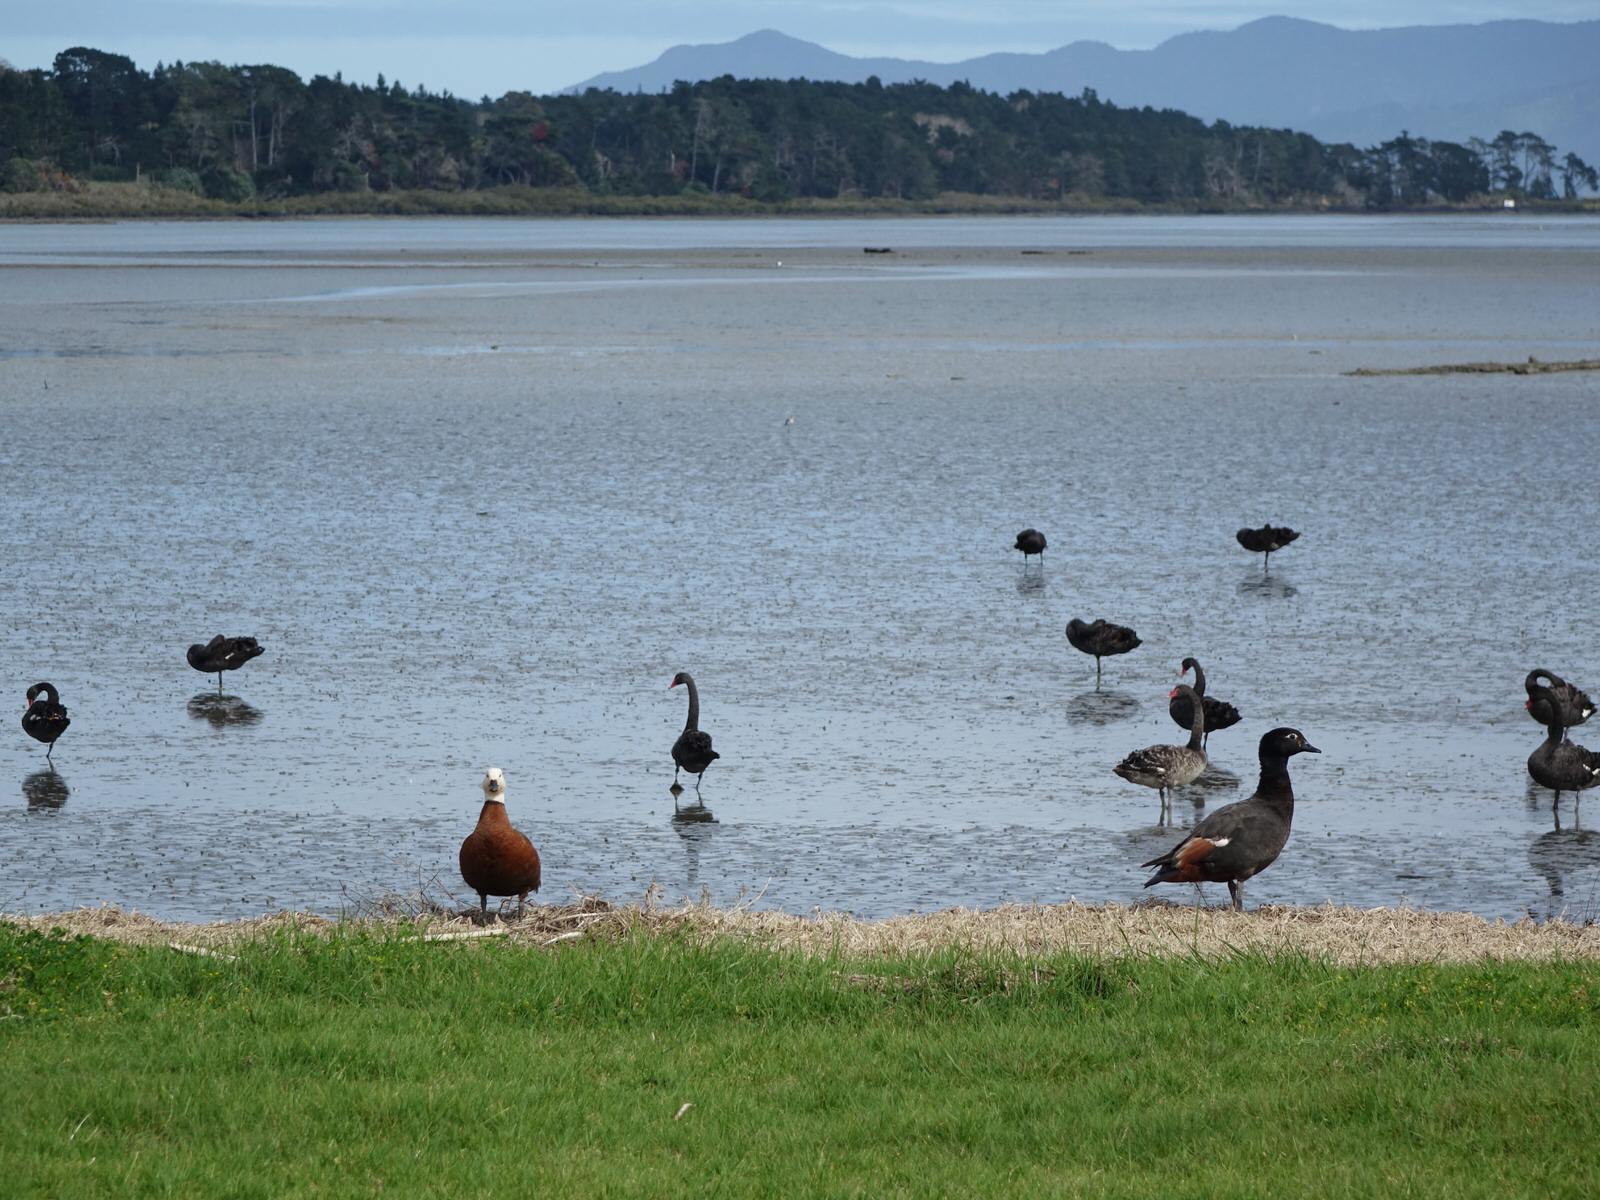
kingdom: Animalia
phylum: Chordata
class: Aves
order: Anseriformes
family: Anatidae
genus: Tadorna
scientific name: Tadorna variegata
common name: Paradise shelduck
